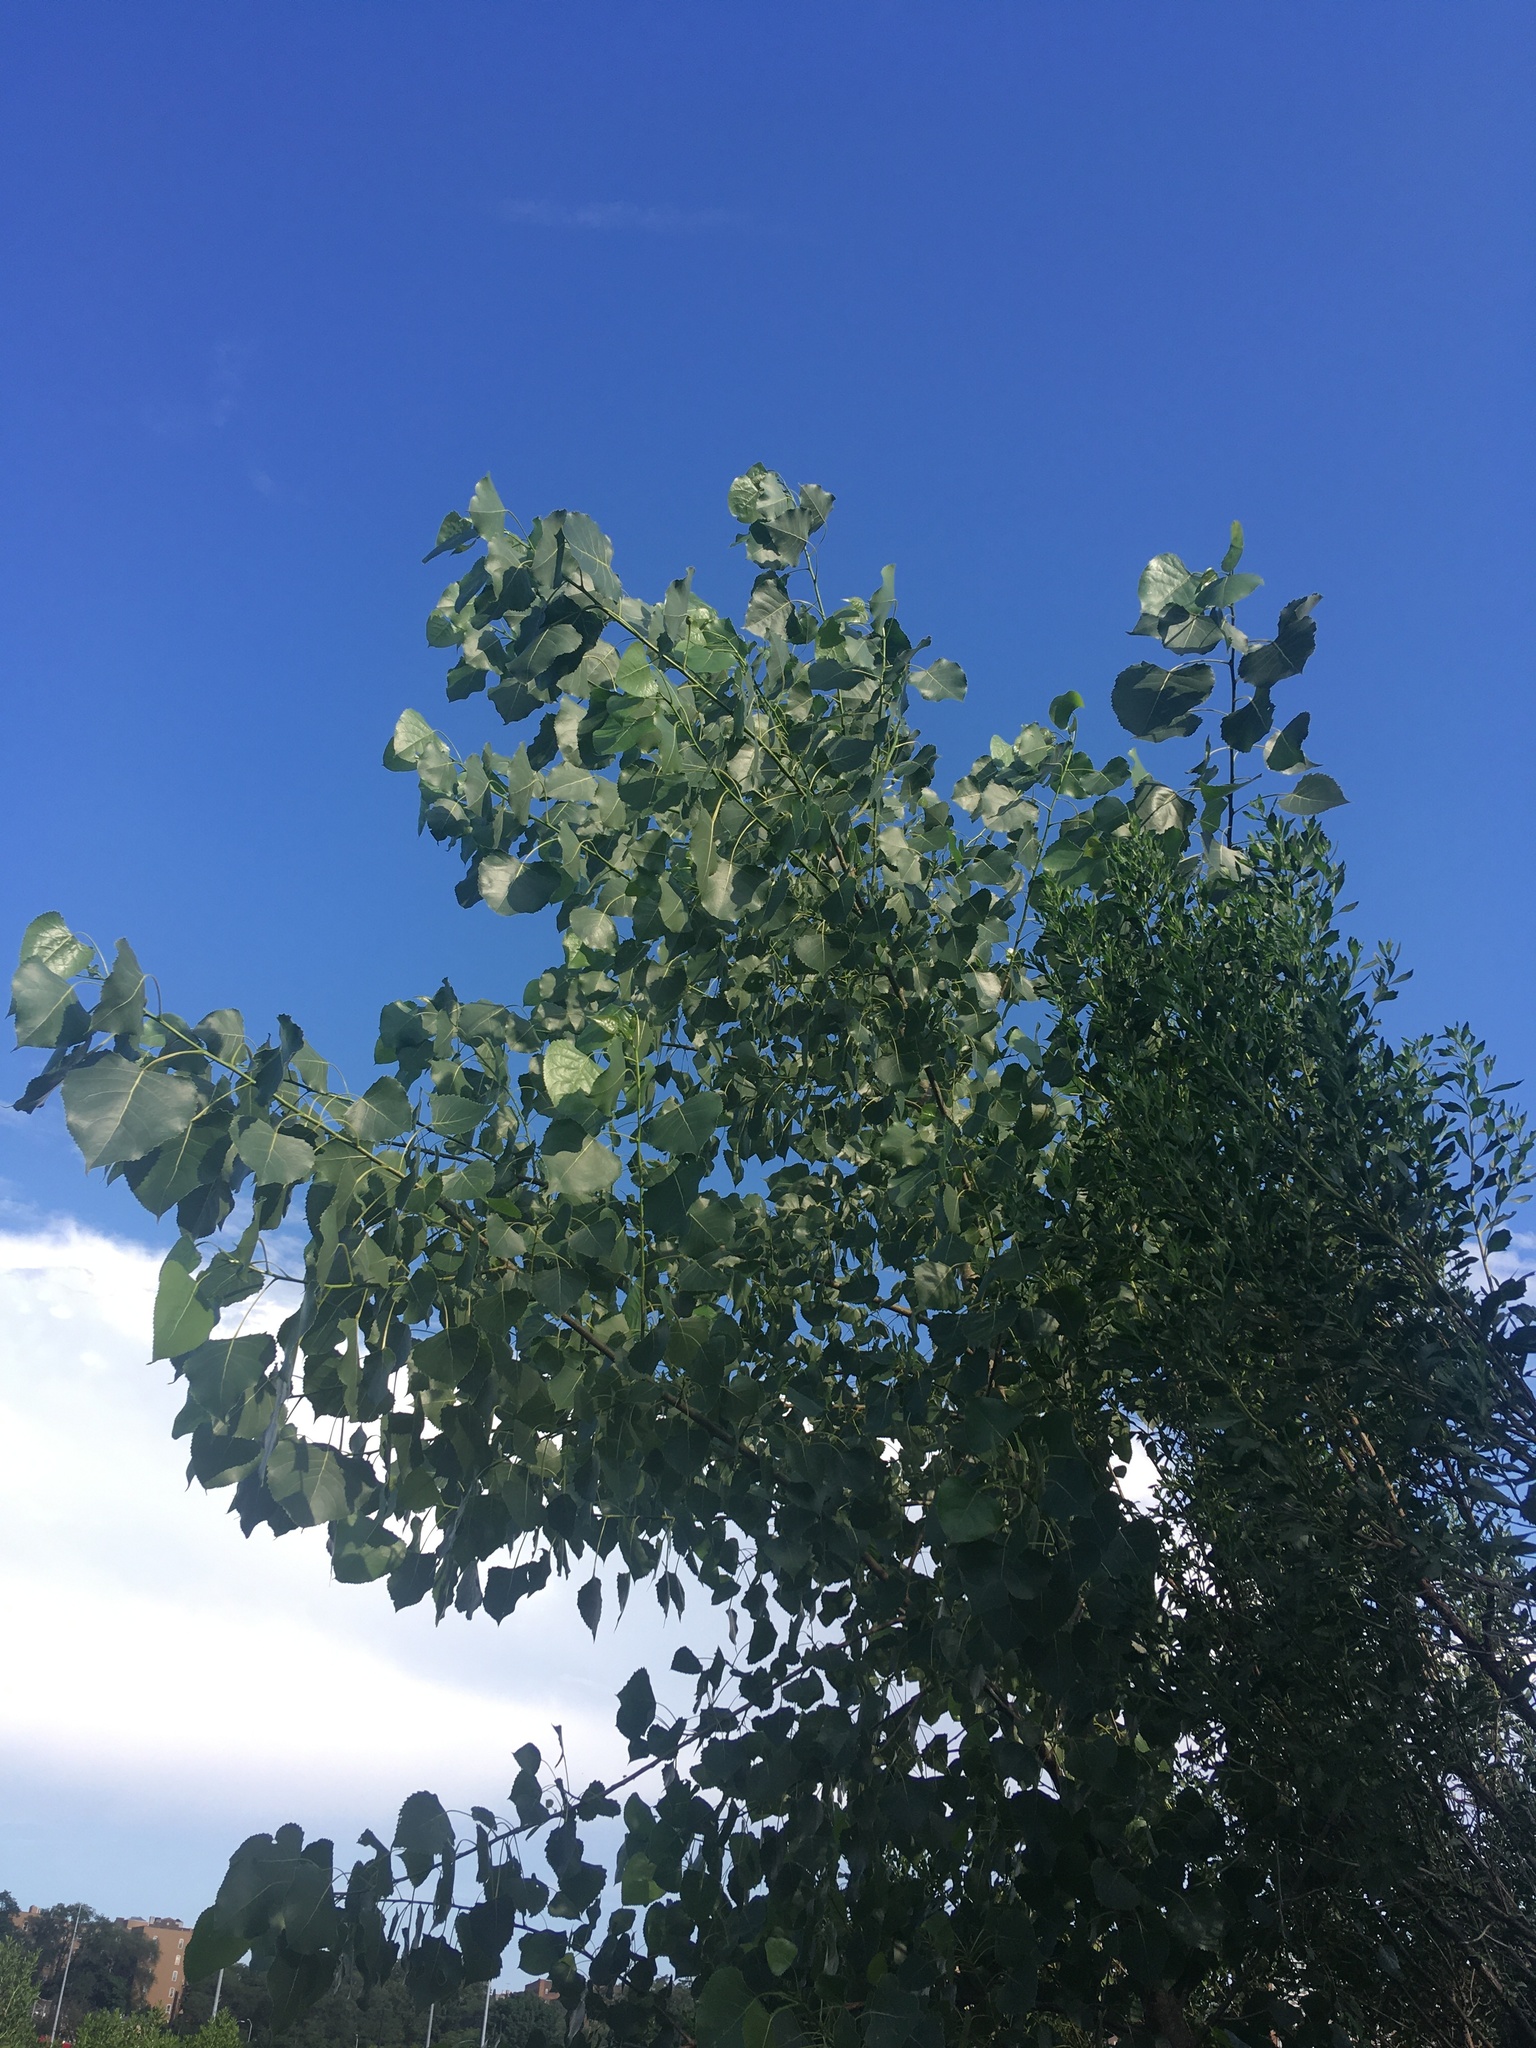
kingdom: Plantae
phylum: Tracheophyta
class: Magnoliopsida
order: Malpighiales
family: Salicaceae
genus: Populus
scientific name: Populus deltoides
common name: Eastern cottonwood
